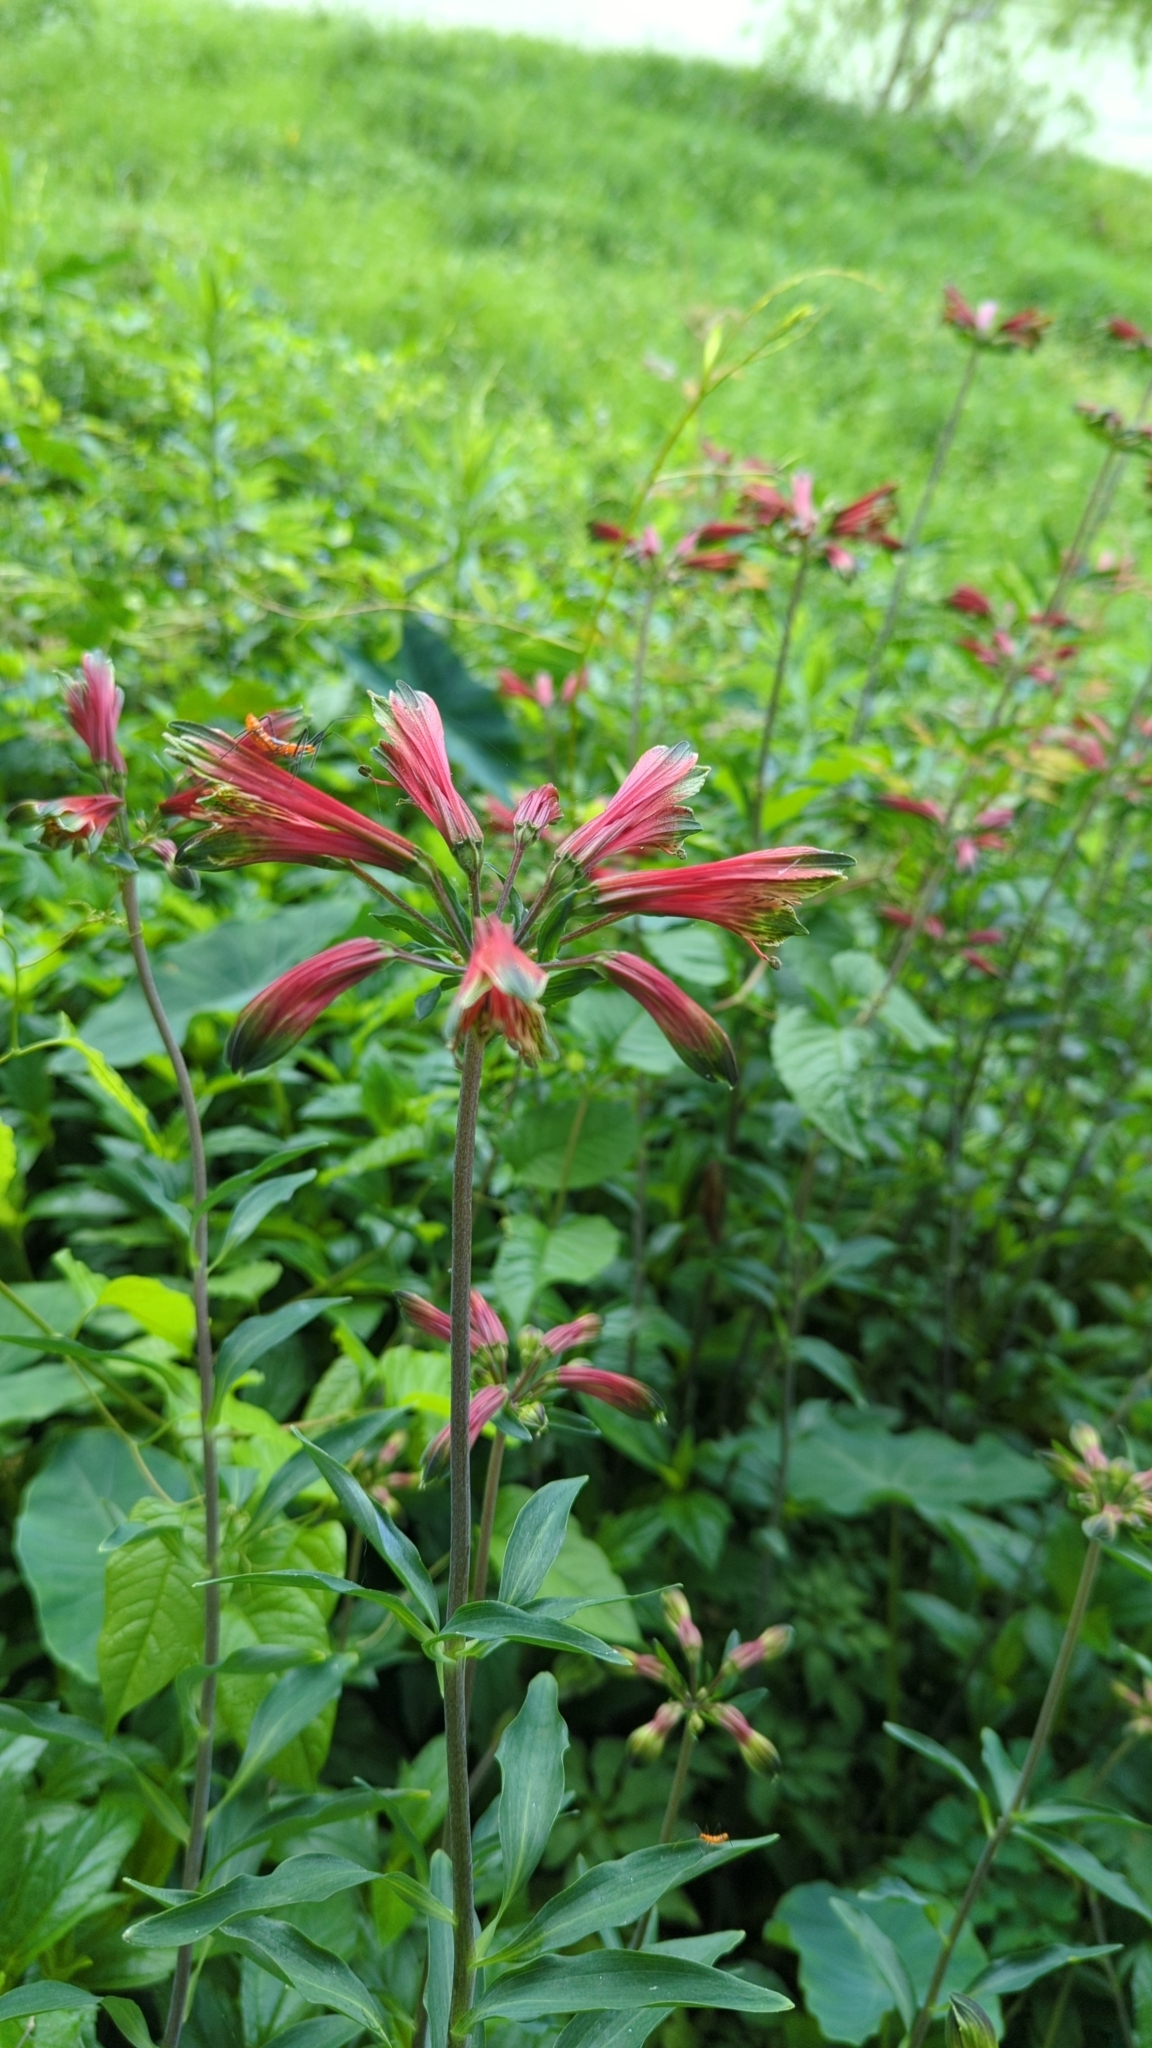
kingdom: Plantae
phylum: Tracheophyta
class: Liliopsida
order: Liliales
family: Alstroemeriaceae
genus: Alstroemeria
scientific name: Alstroemeria psittacina
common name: Peruvian-lily
